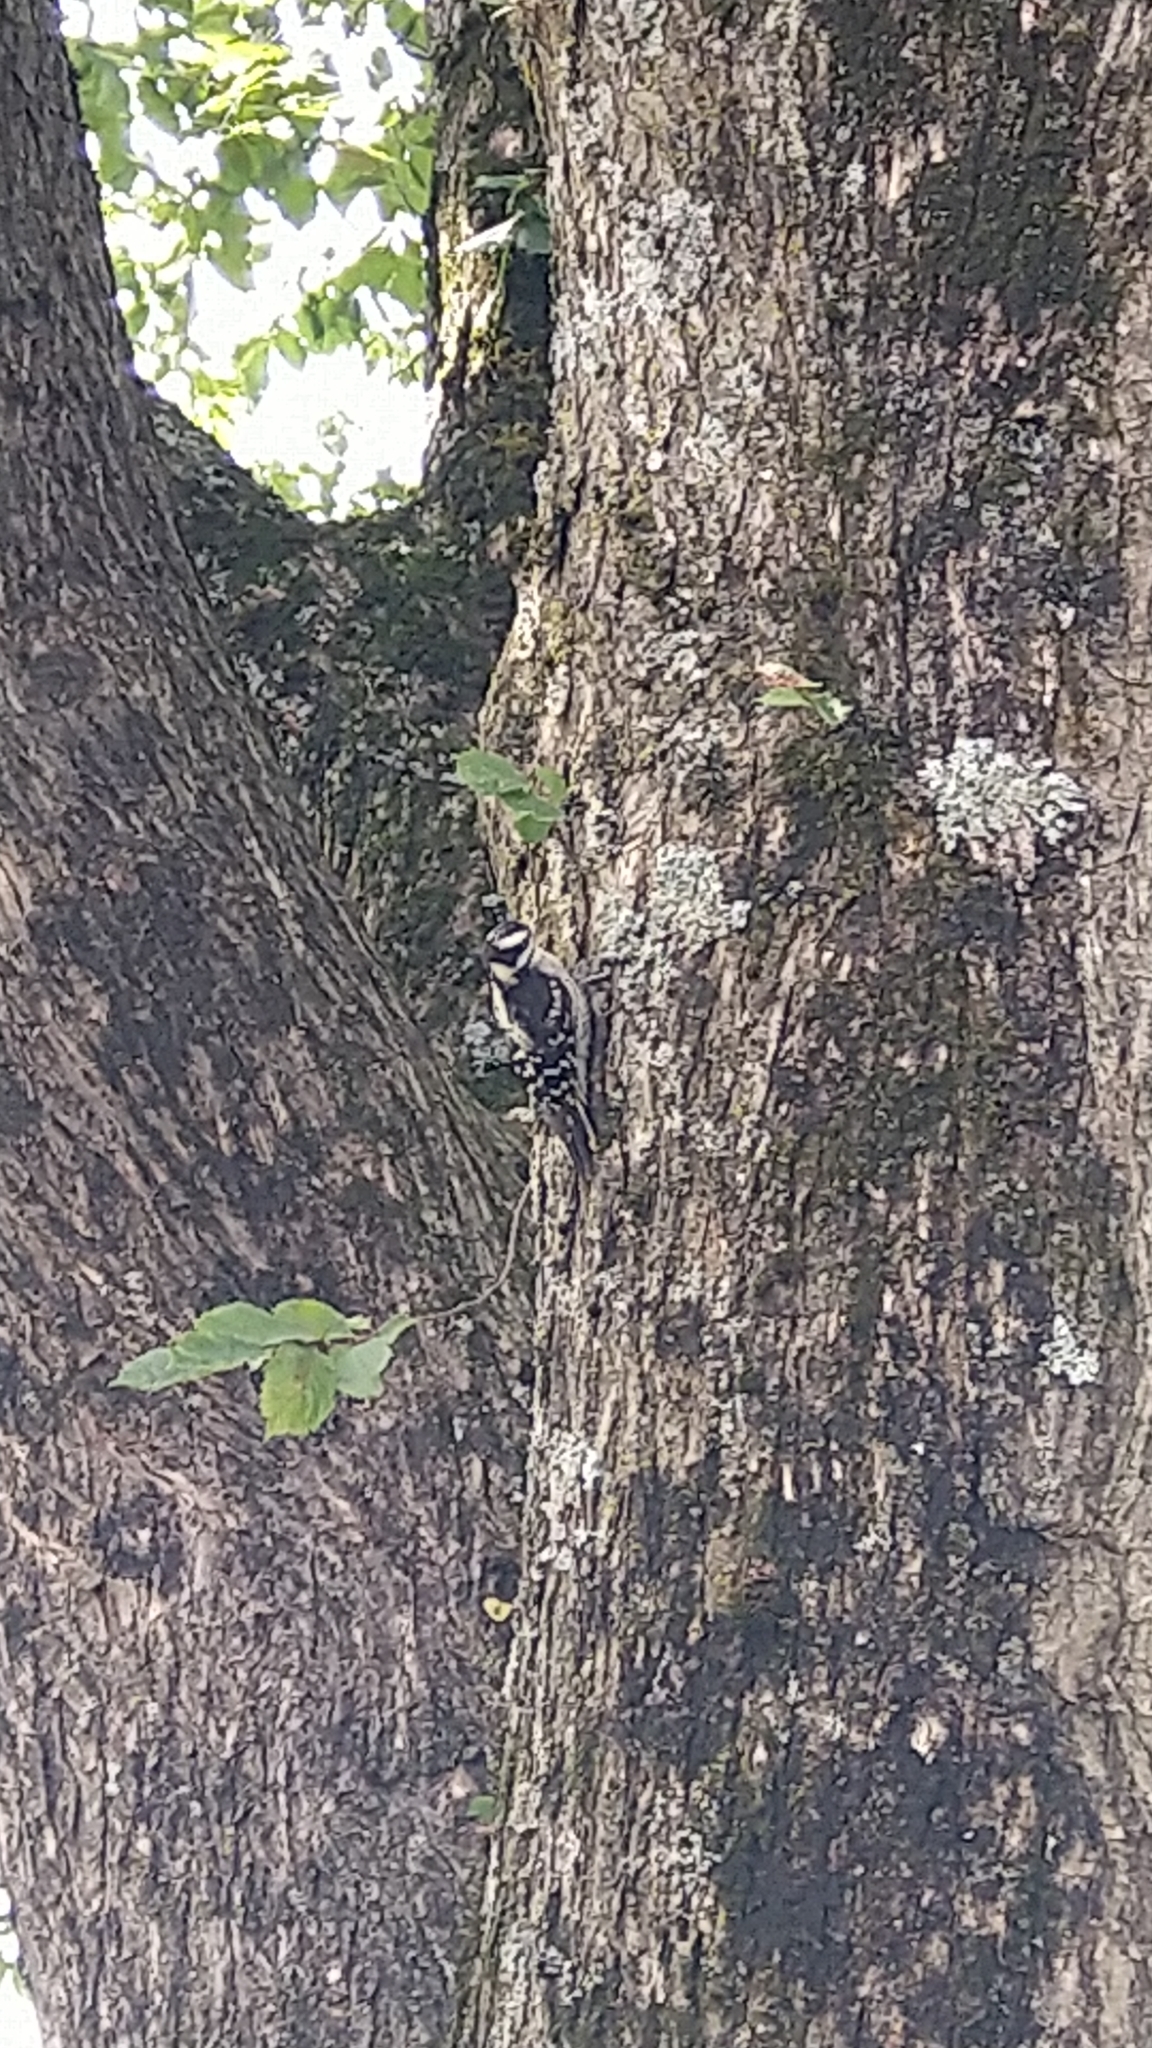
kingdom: Animalia
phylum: Chordata
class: Aves
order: Piciformes
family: Picidae
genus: Dryobates
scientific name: Dryobates pubescens
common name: Downy woodpecker
